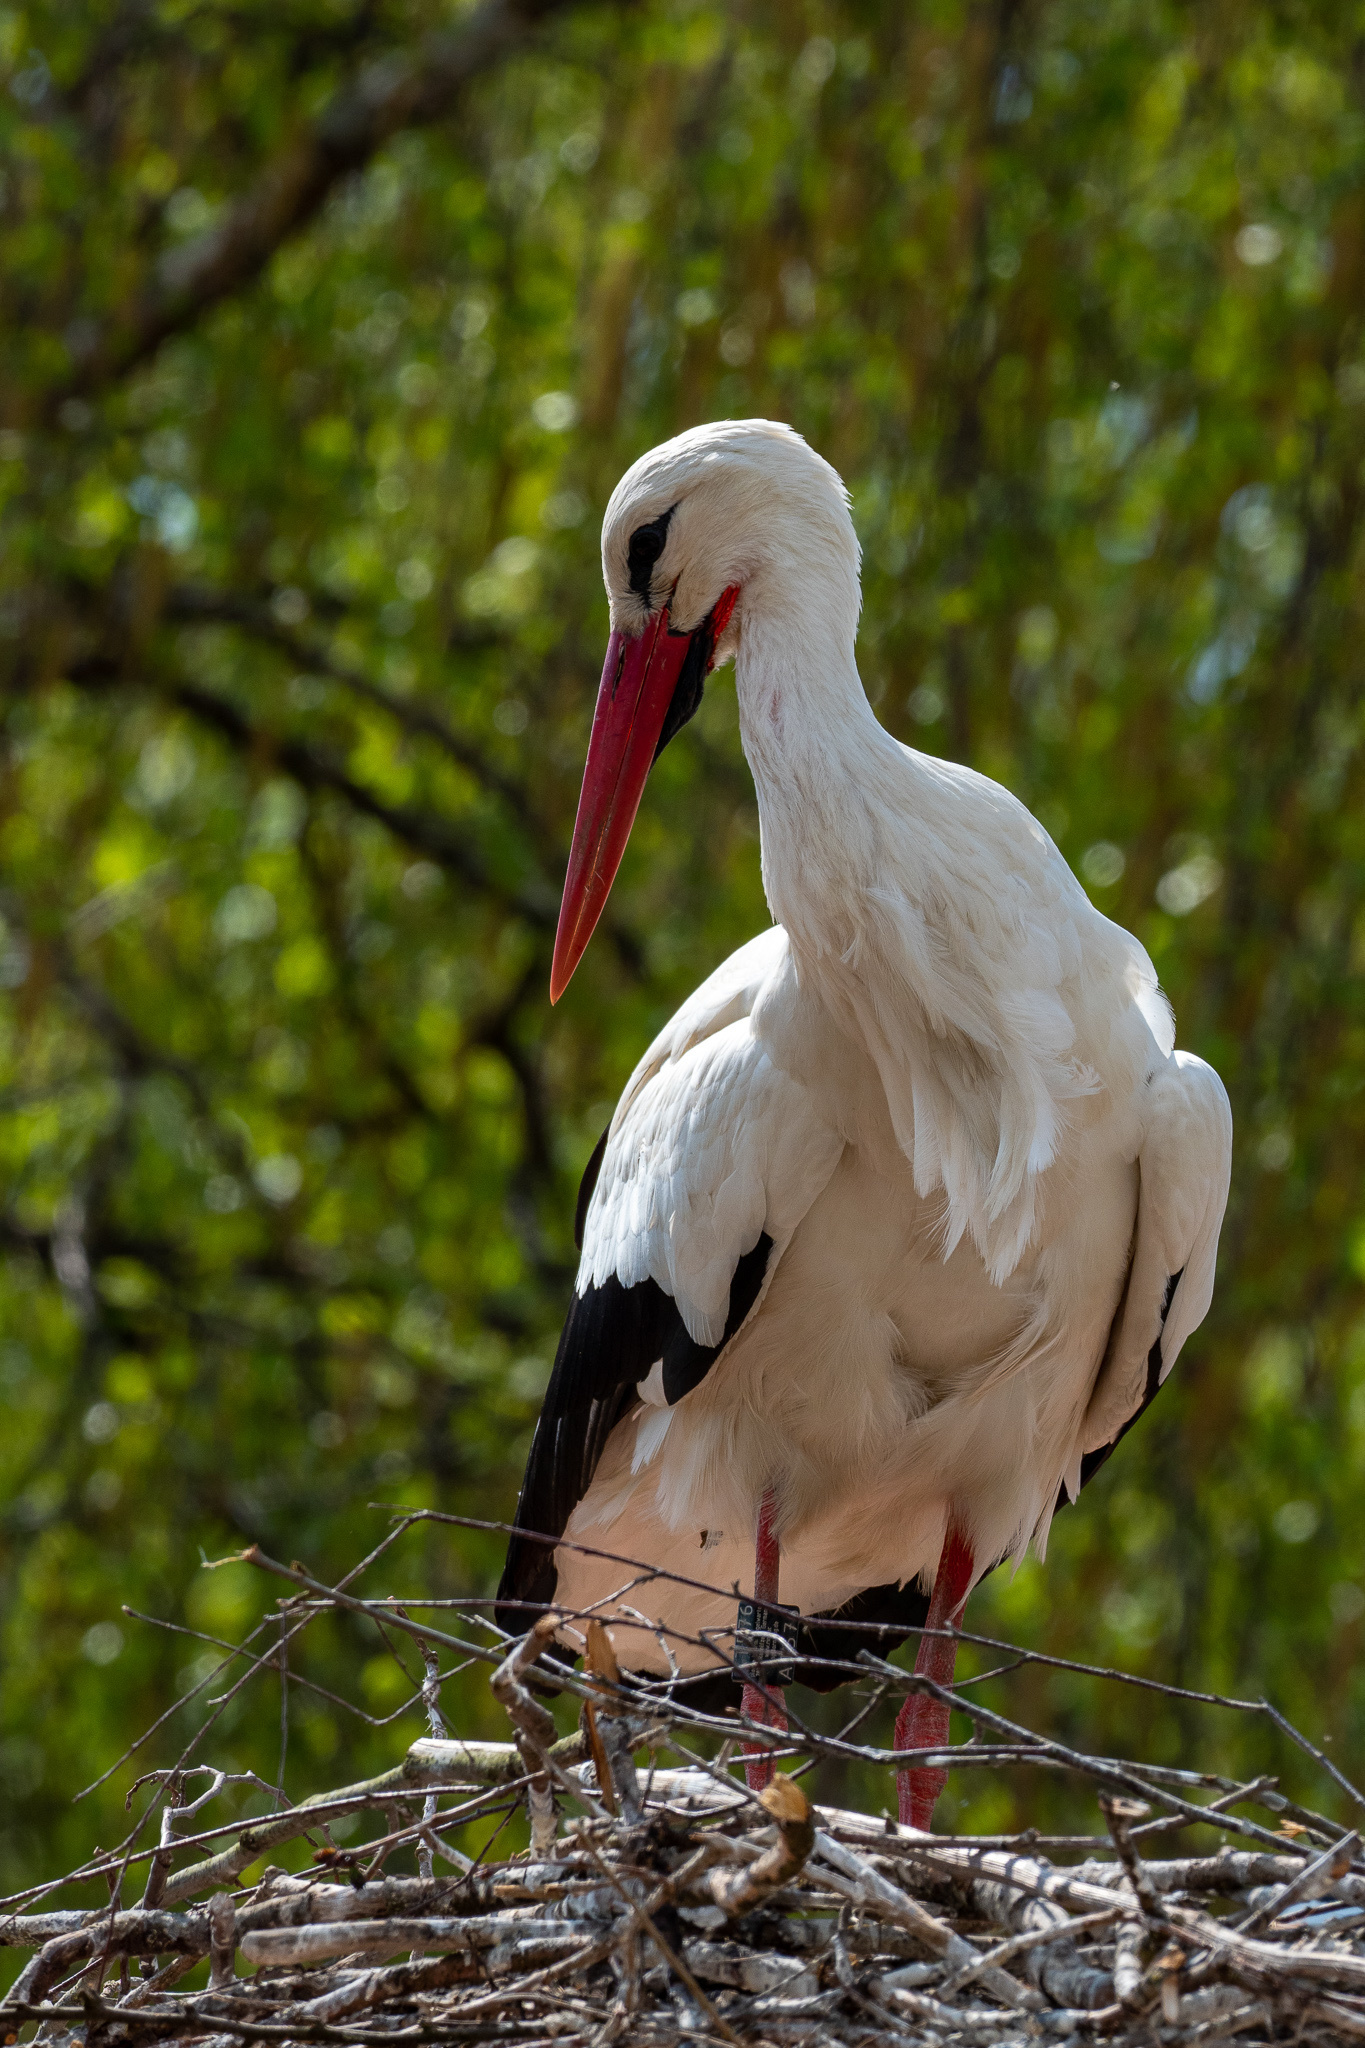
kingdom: Animalia
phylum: Chordata
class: Aves
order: Ciconiiformes
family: Ciconiidae
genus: Ciconia
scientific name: Ciconia ciconia
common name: White stork
